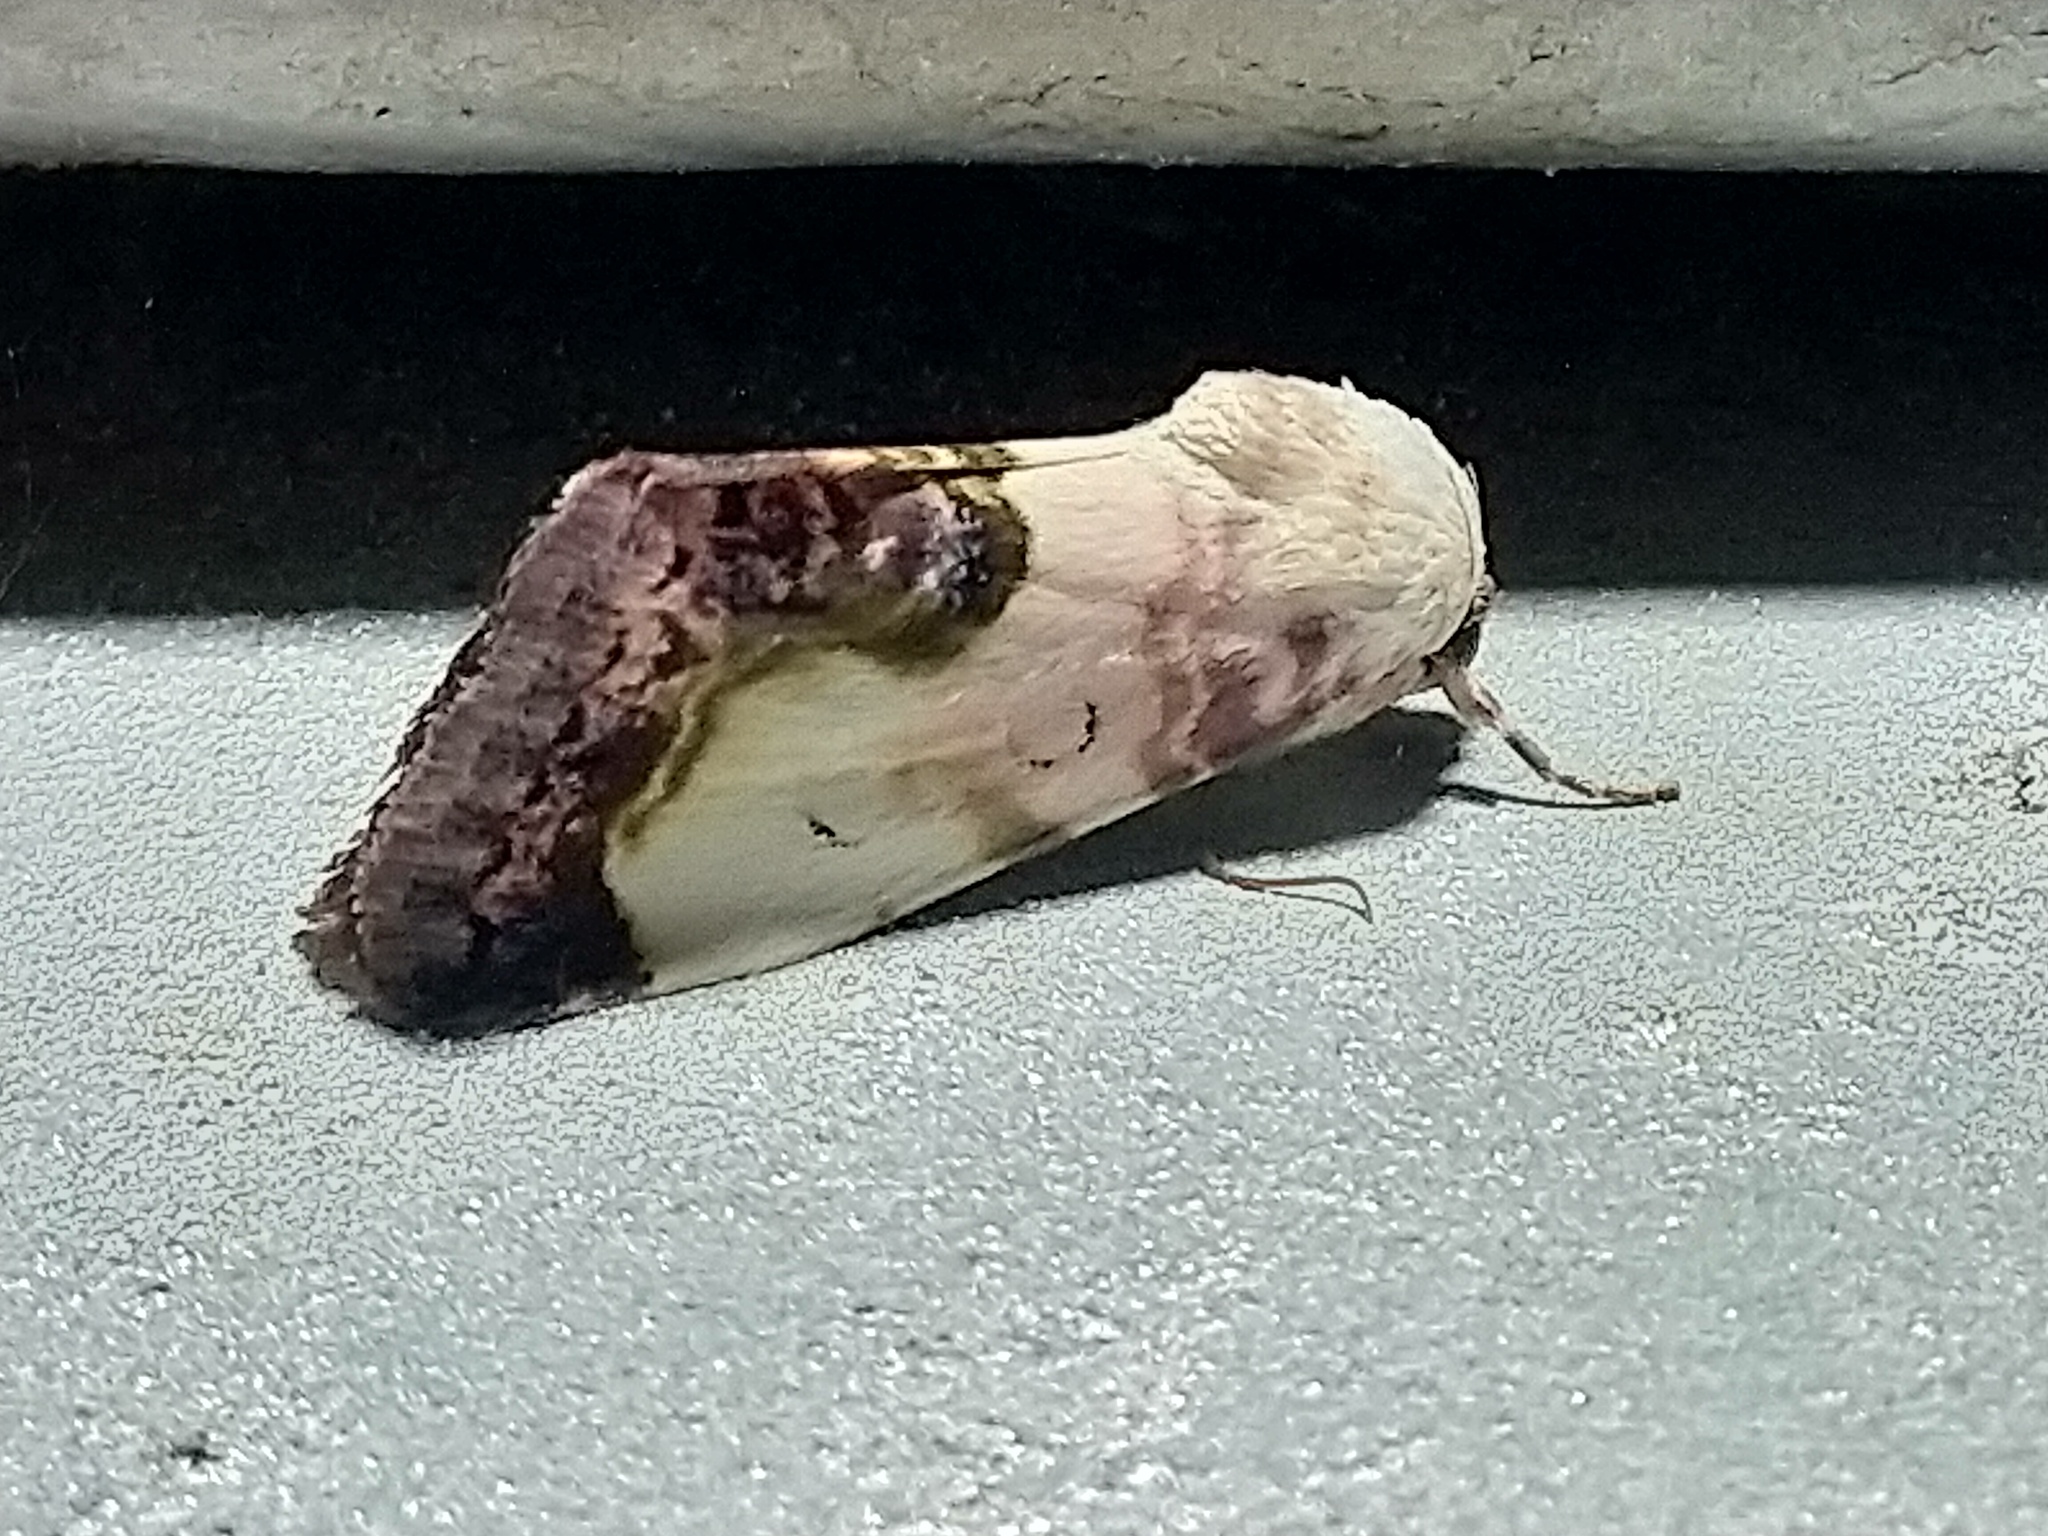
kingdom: Animalia
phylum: Arthropoda
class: Insecta
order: Lepidoptera
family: Noctuidae
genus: Acontia
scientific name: Acontia titania
